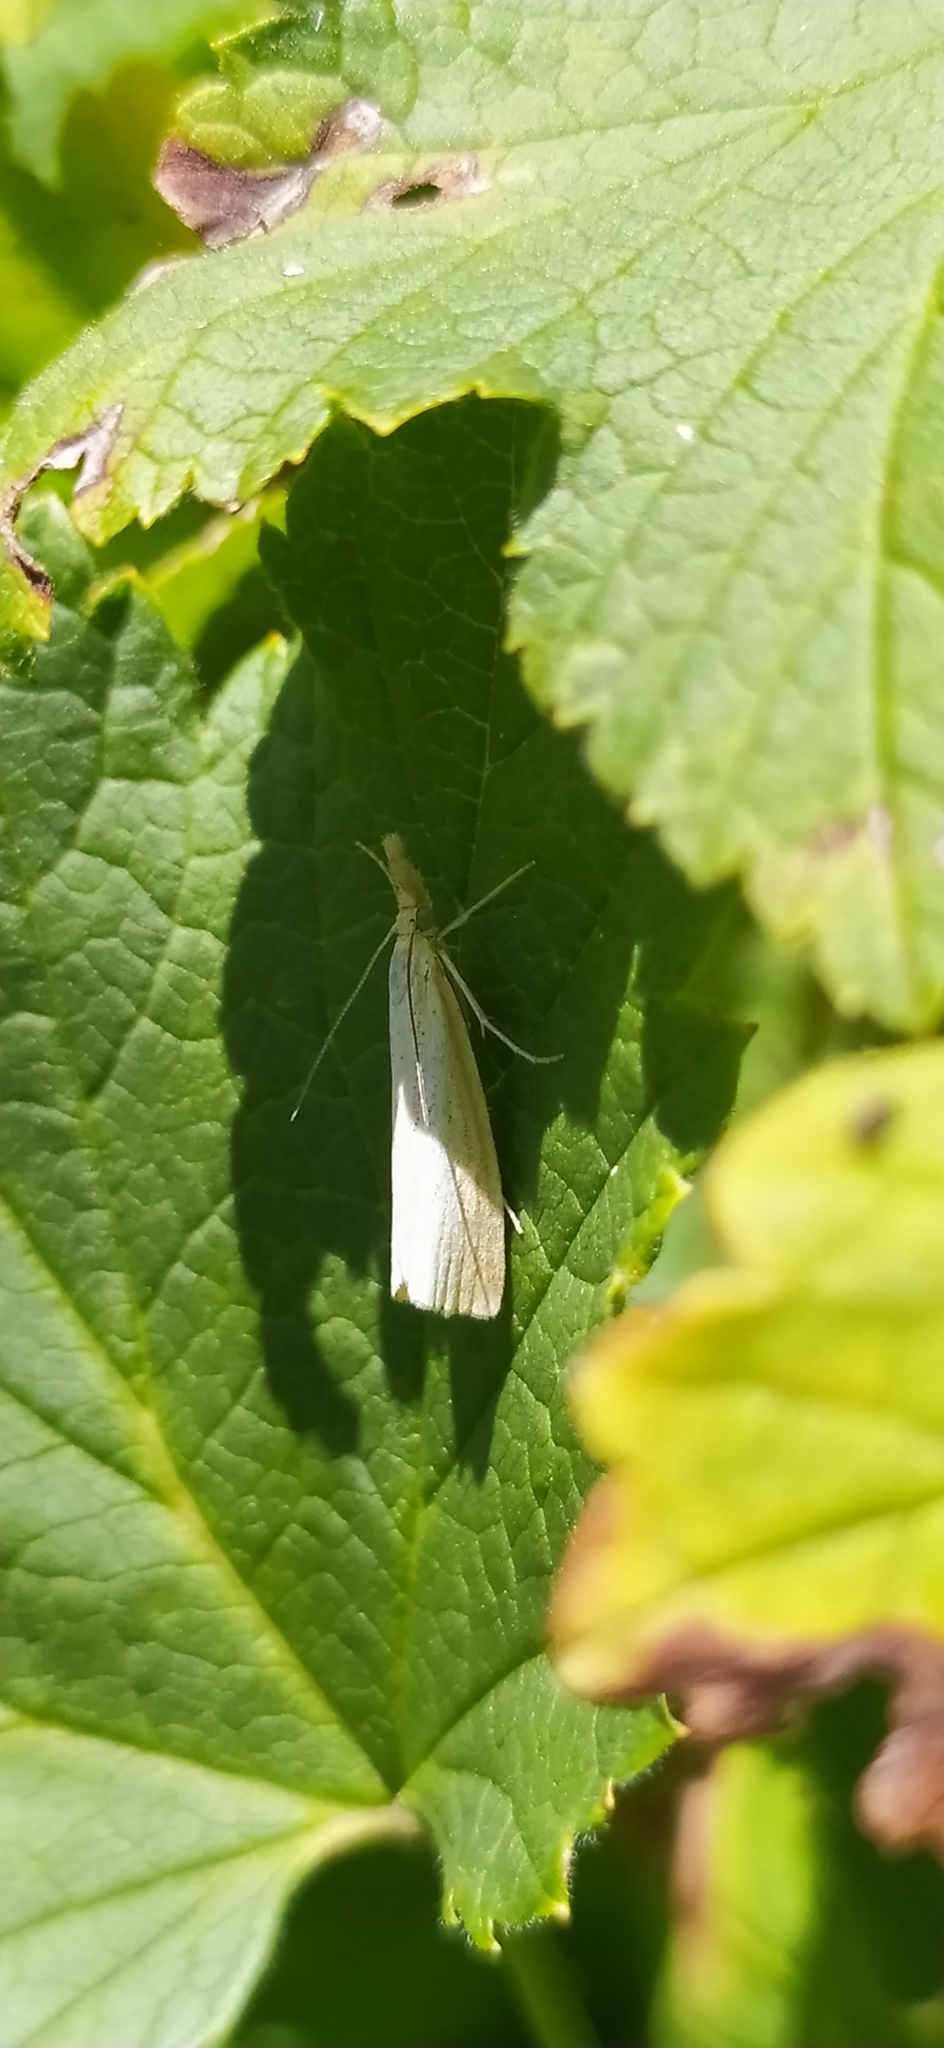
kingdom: Animalia
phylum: Arthropoda
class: Insecta
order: Lepidoptera
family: Crambidae
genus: Agriphila
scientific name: Agriphila straminella
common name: Straw grass-veneer
